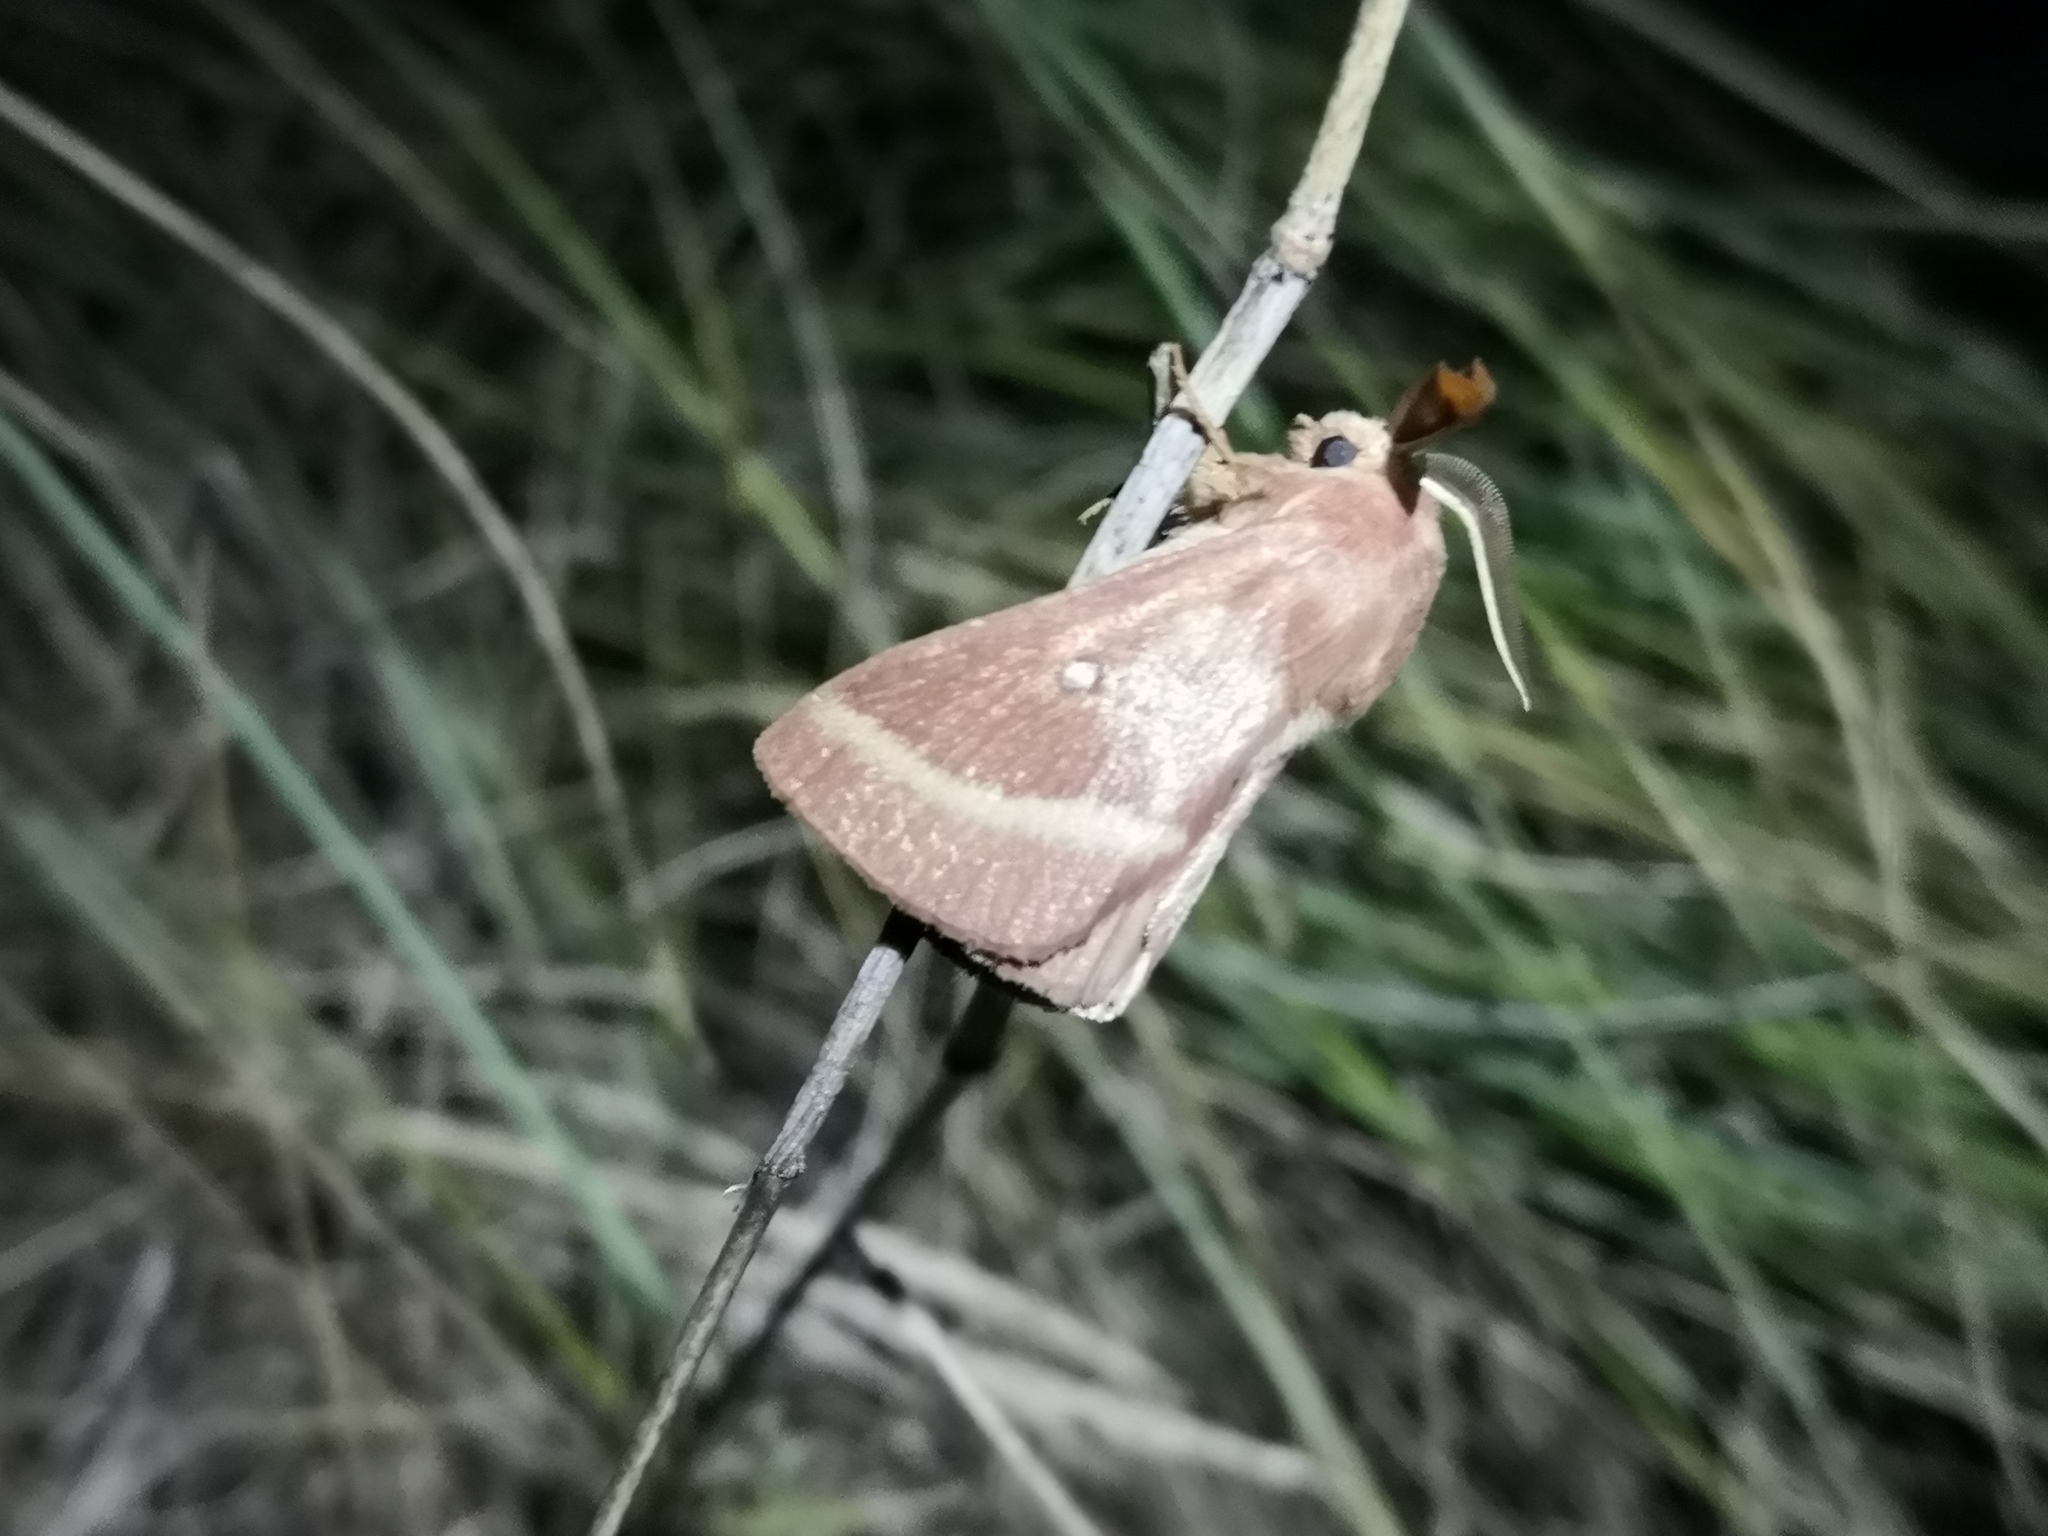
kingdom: Animalia
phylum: Arthropoda
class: Insecta
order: Lepidoptera
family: Lasiocampidae
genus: Lasiocampa
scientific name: Lasiocampa trifolii
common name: Grass eggar
